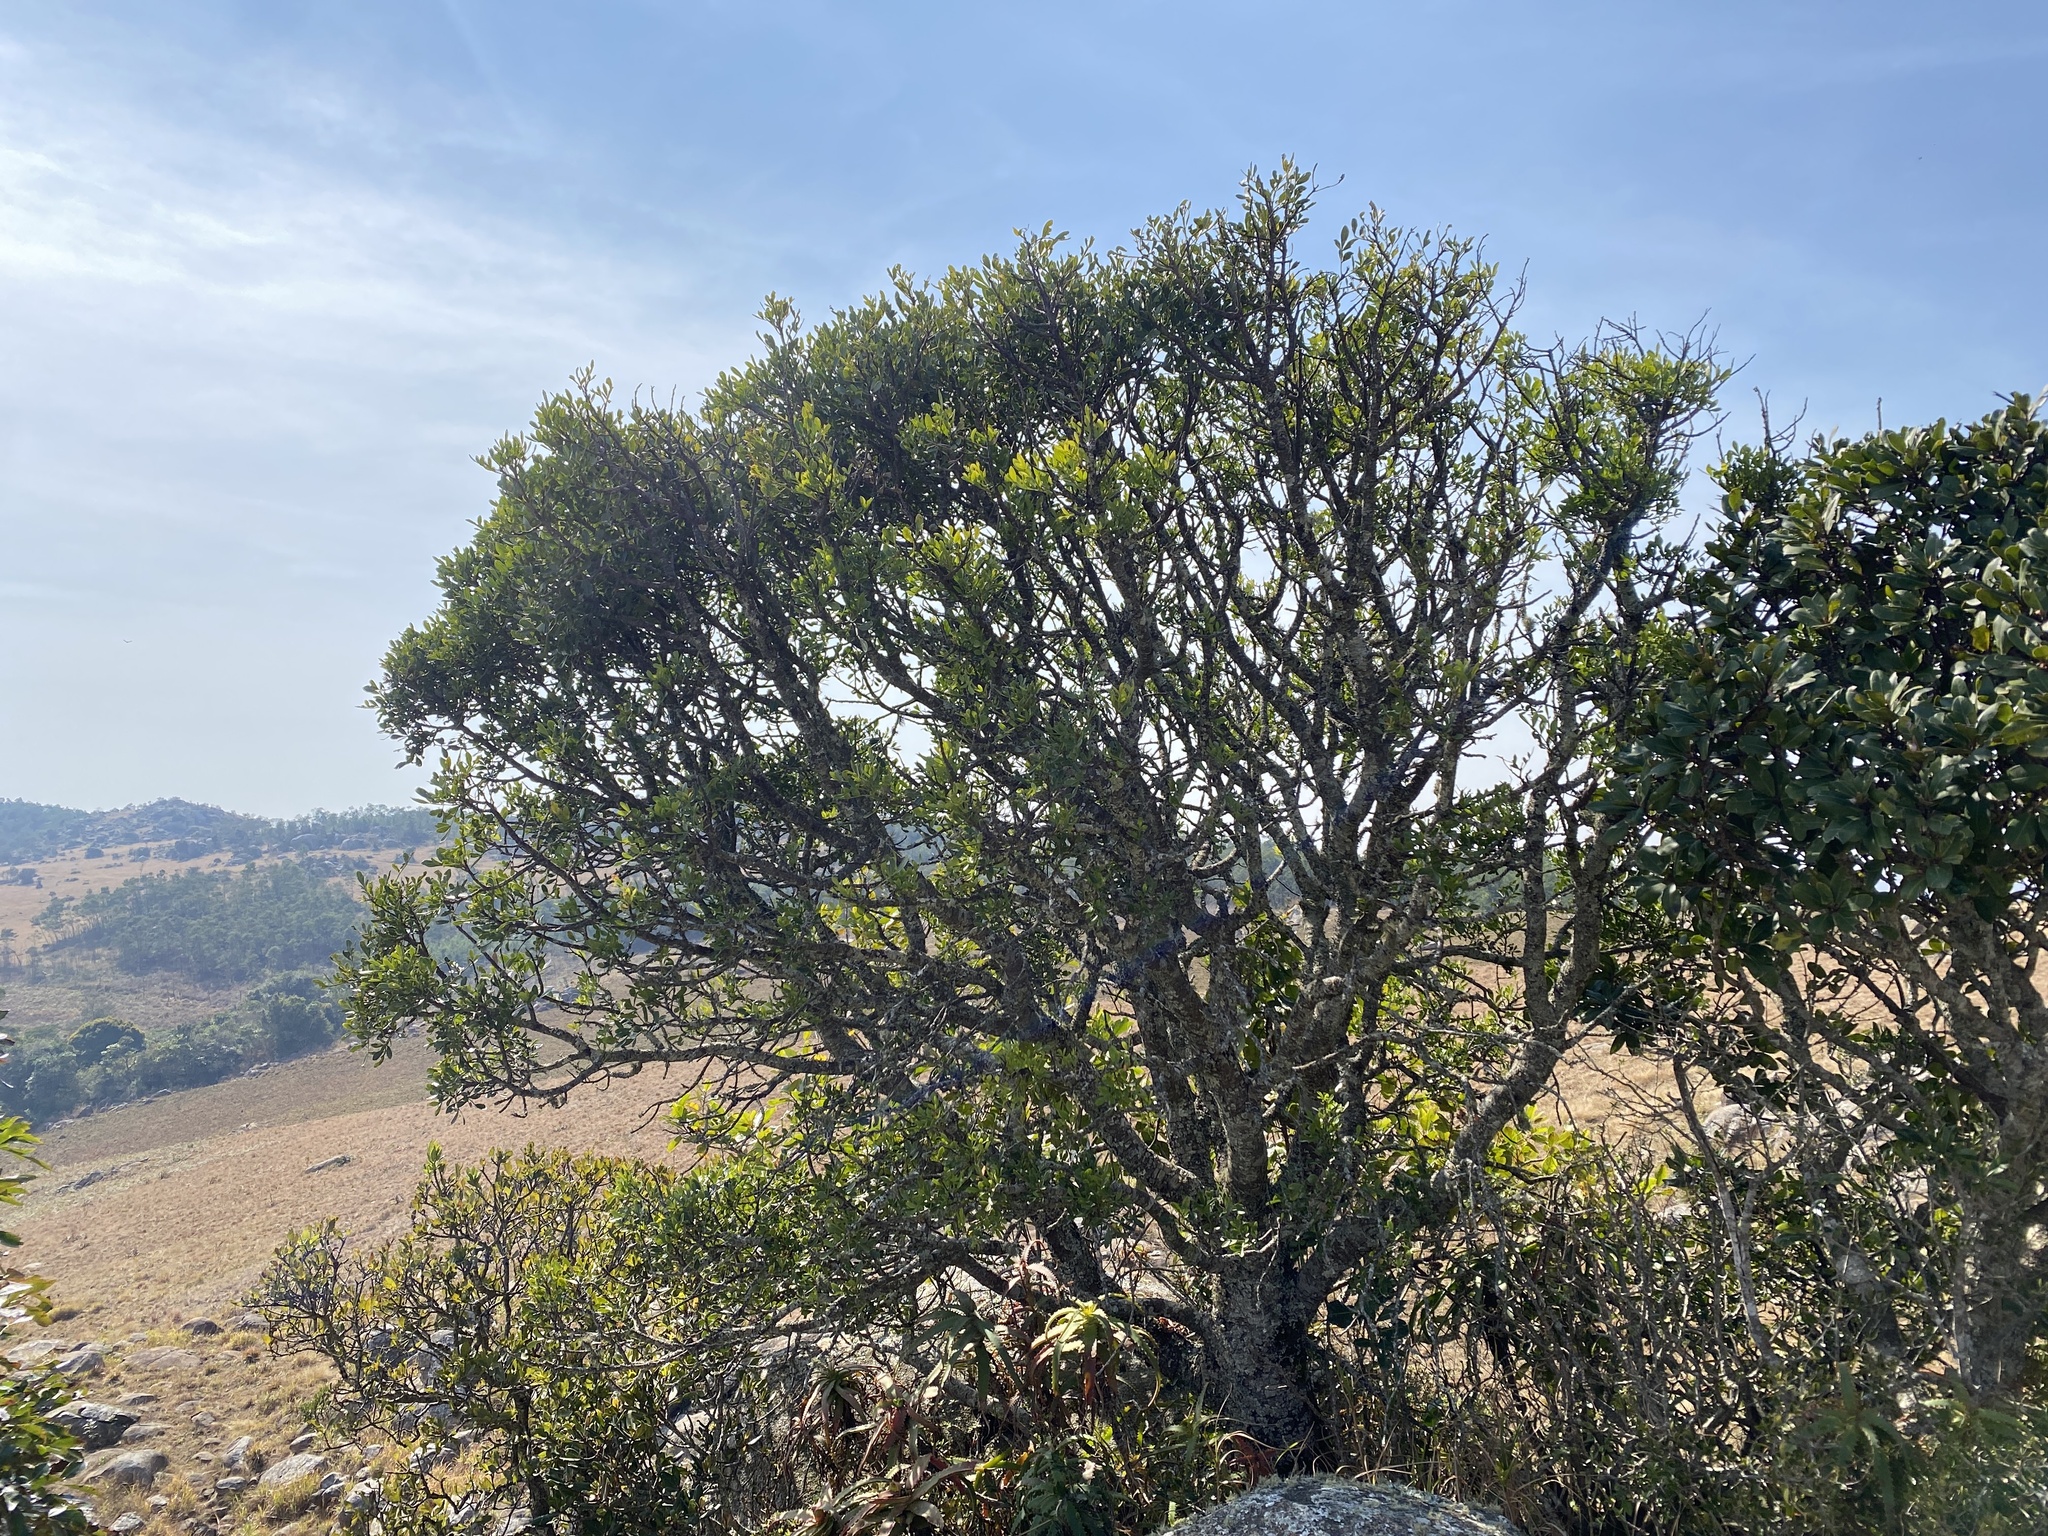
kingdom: Plantae
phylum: Tracheophyta
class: Magnoliopsida
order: Lamiales
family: Oleaceae
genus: Schrebera
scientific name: Schrebera alata
